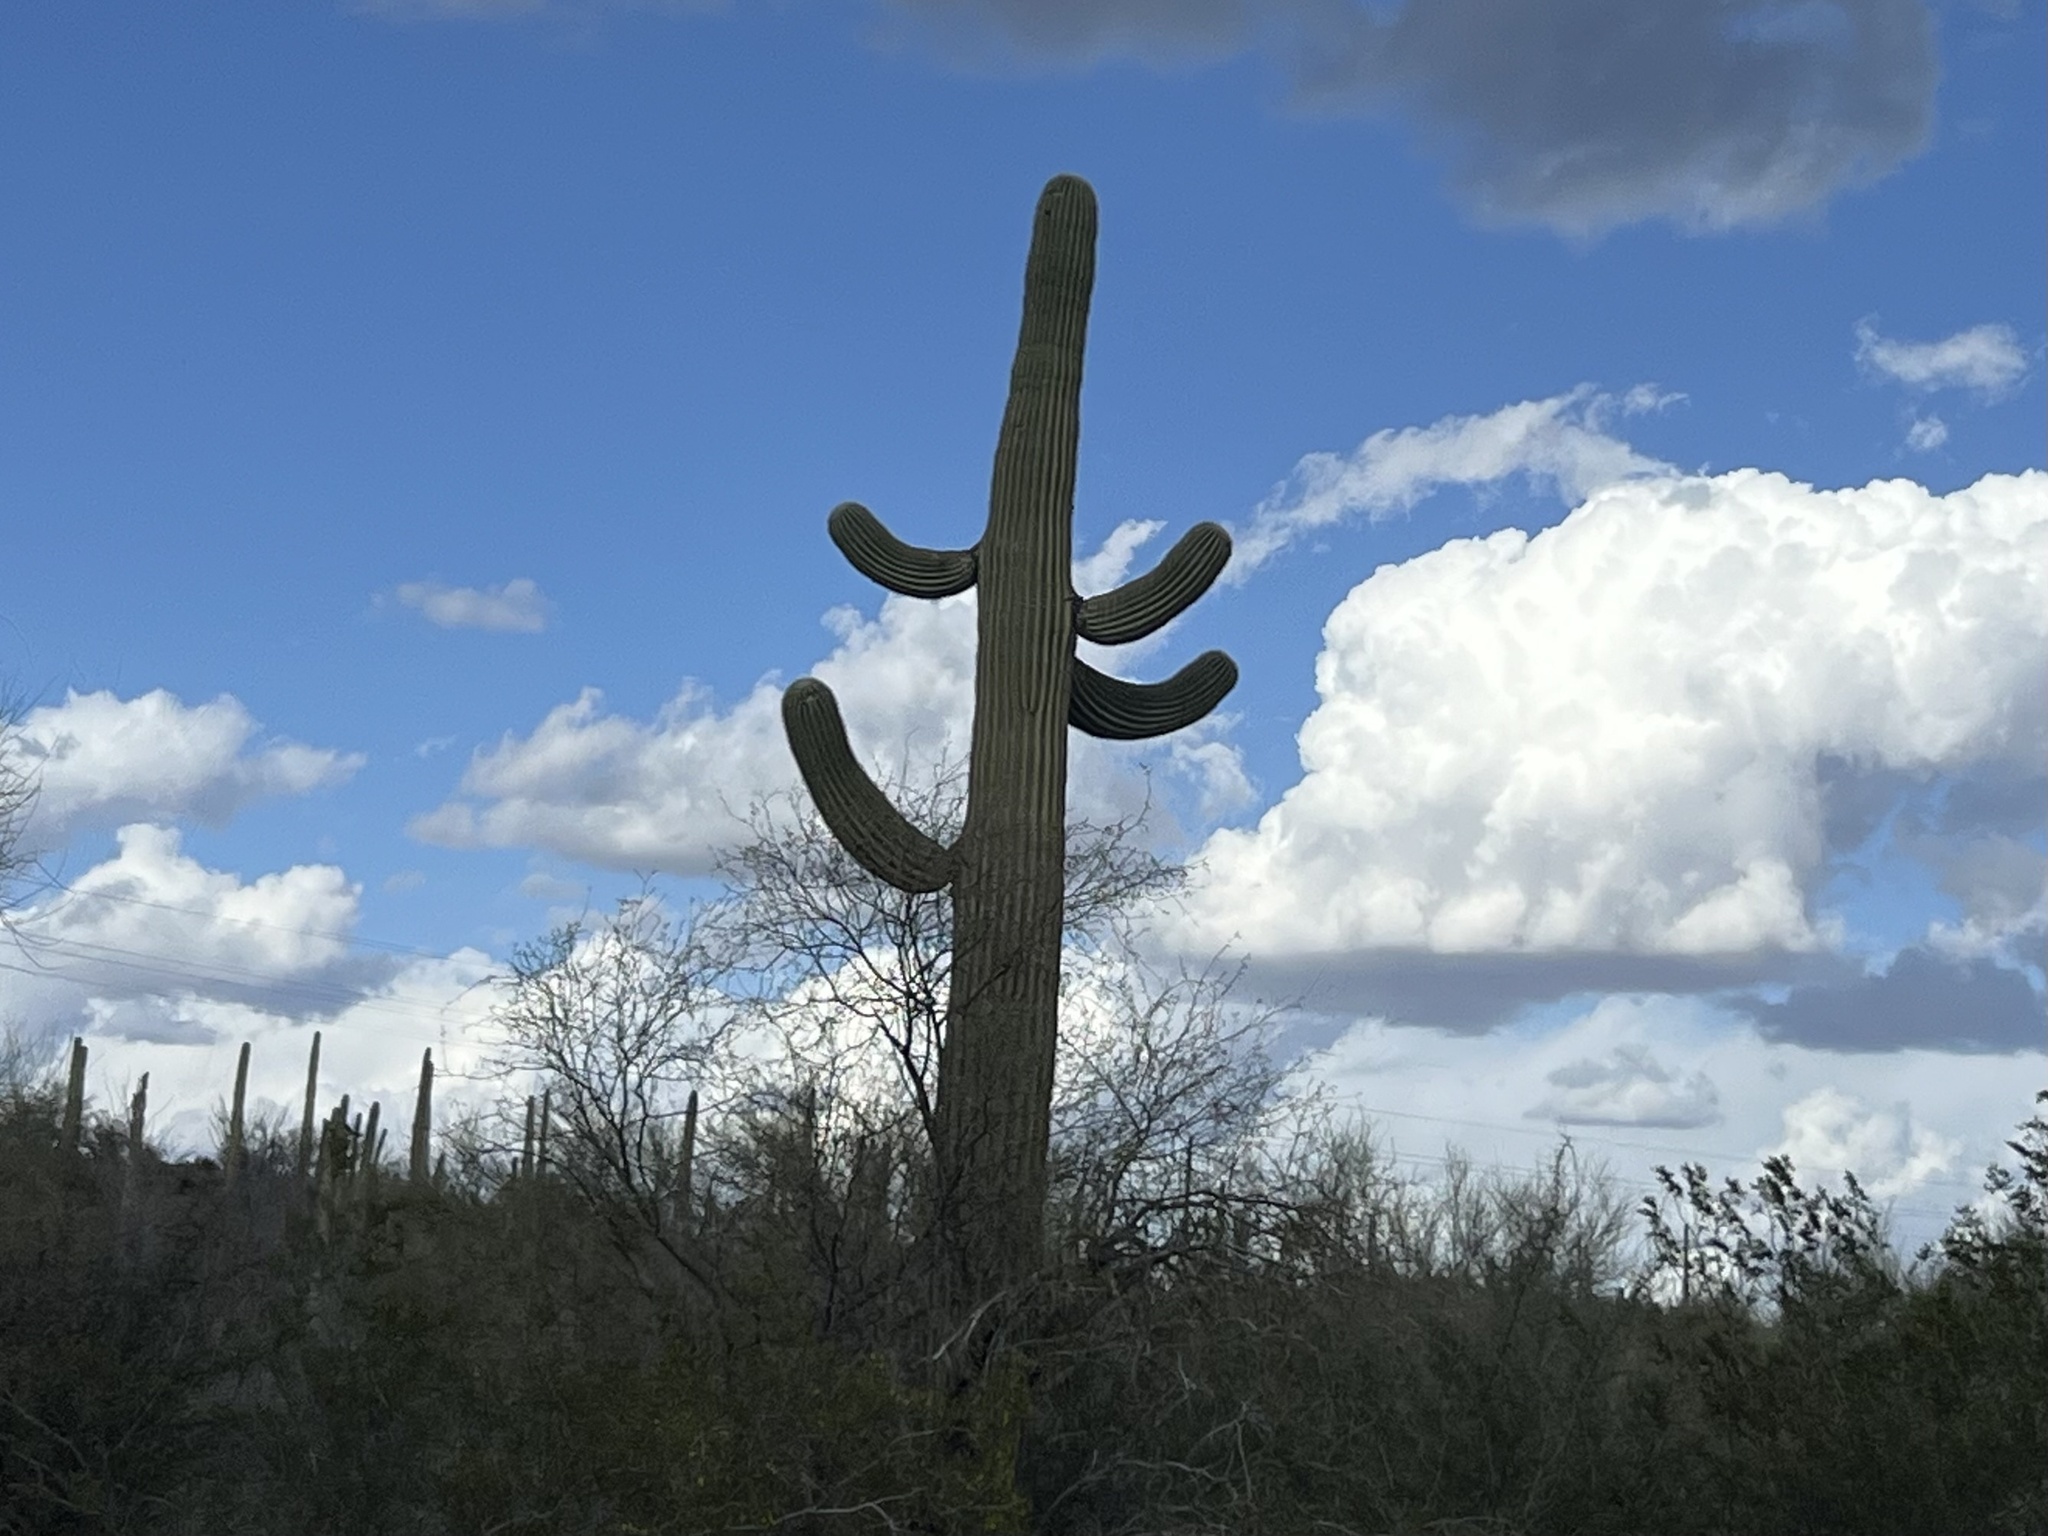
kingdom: Plantae
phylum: Tracheophyta
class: Magnoliopsida
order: Caryophyllales
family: Cactaceae
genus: Carnegiea
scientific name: Carnegiea gigantea
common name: Saguaro
